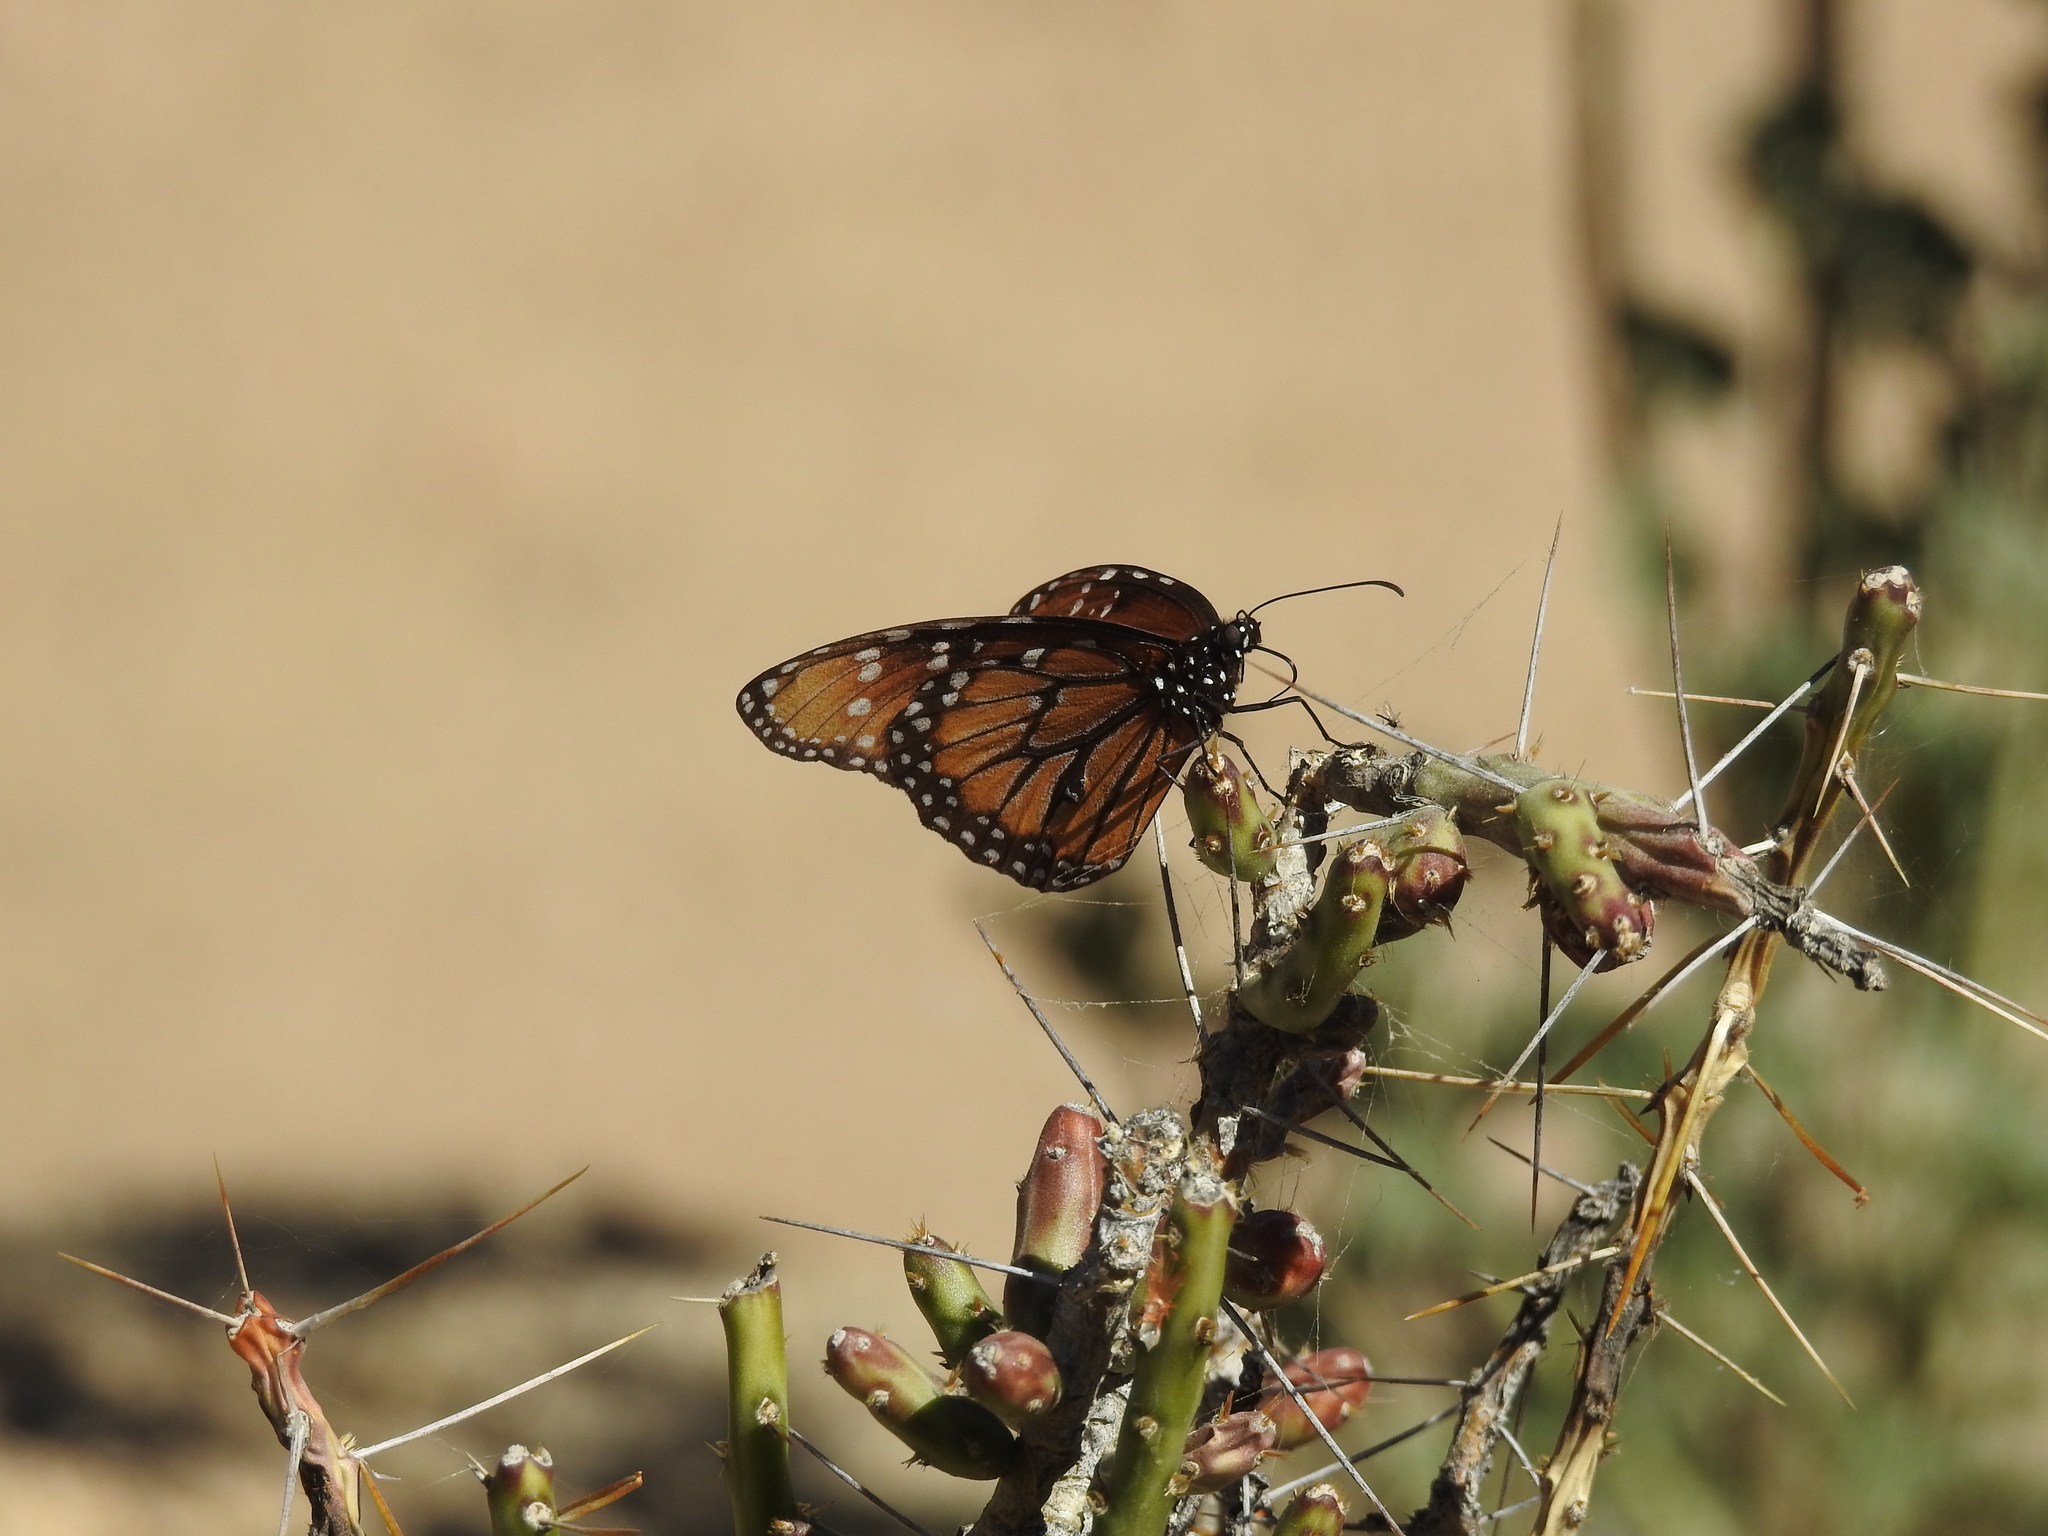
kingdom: Animalia
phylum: Arthropoda
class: Insecta
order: Lepidoptera
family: Nymphalidae
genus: Danaus
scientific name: Danaus gilippus
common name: Queen
